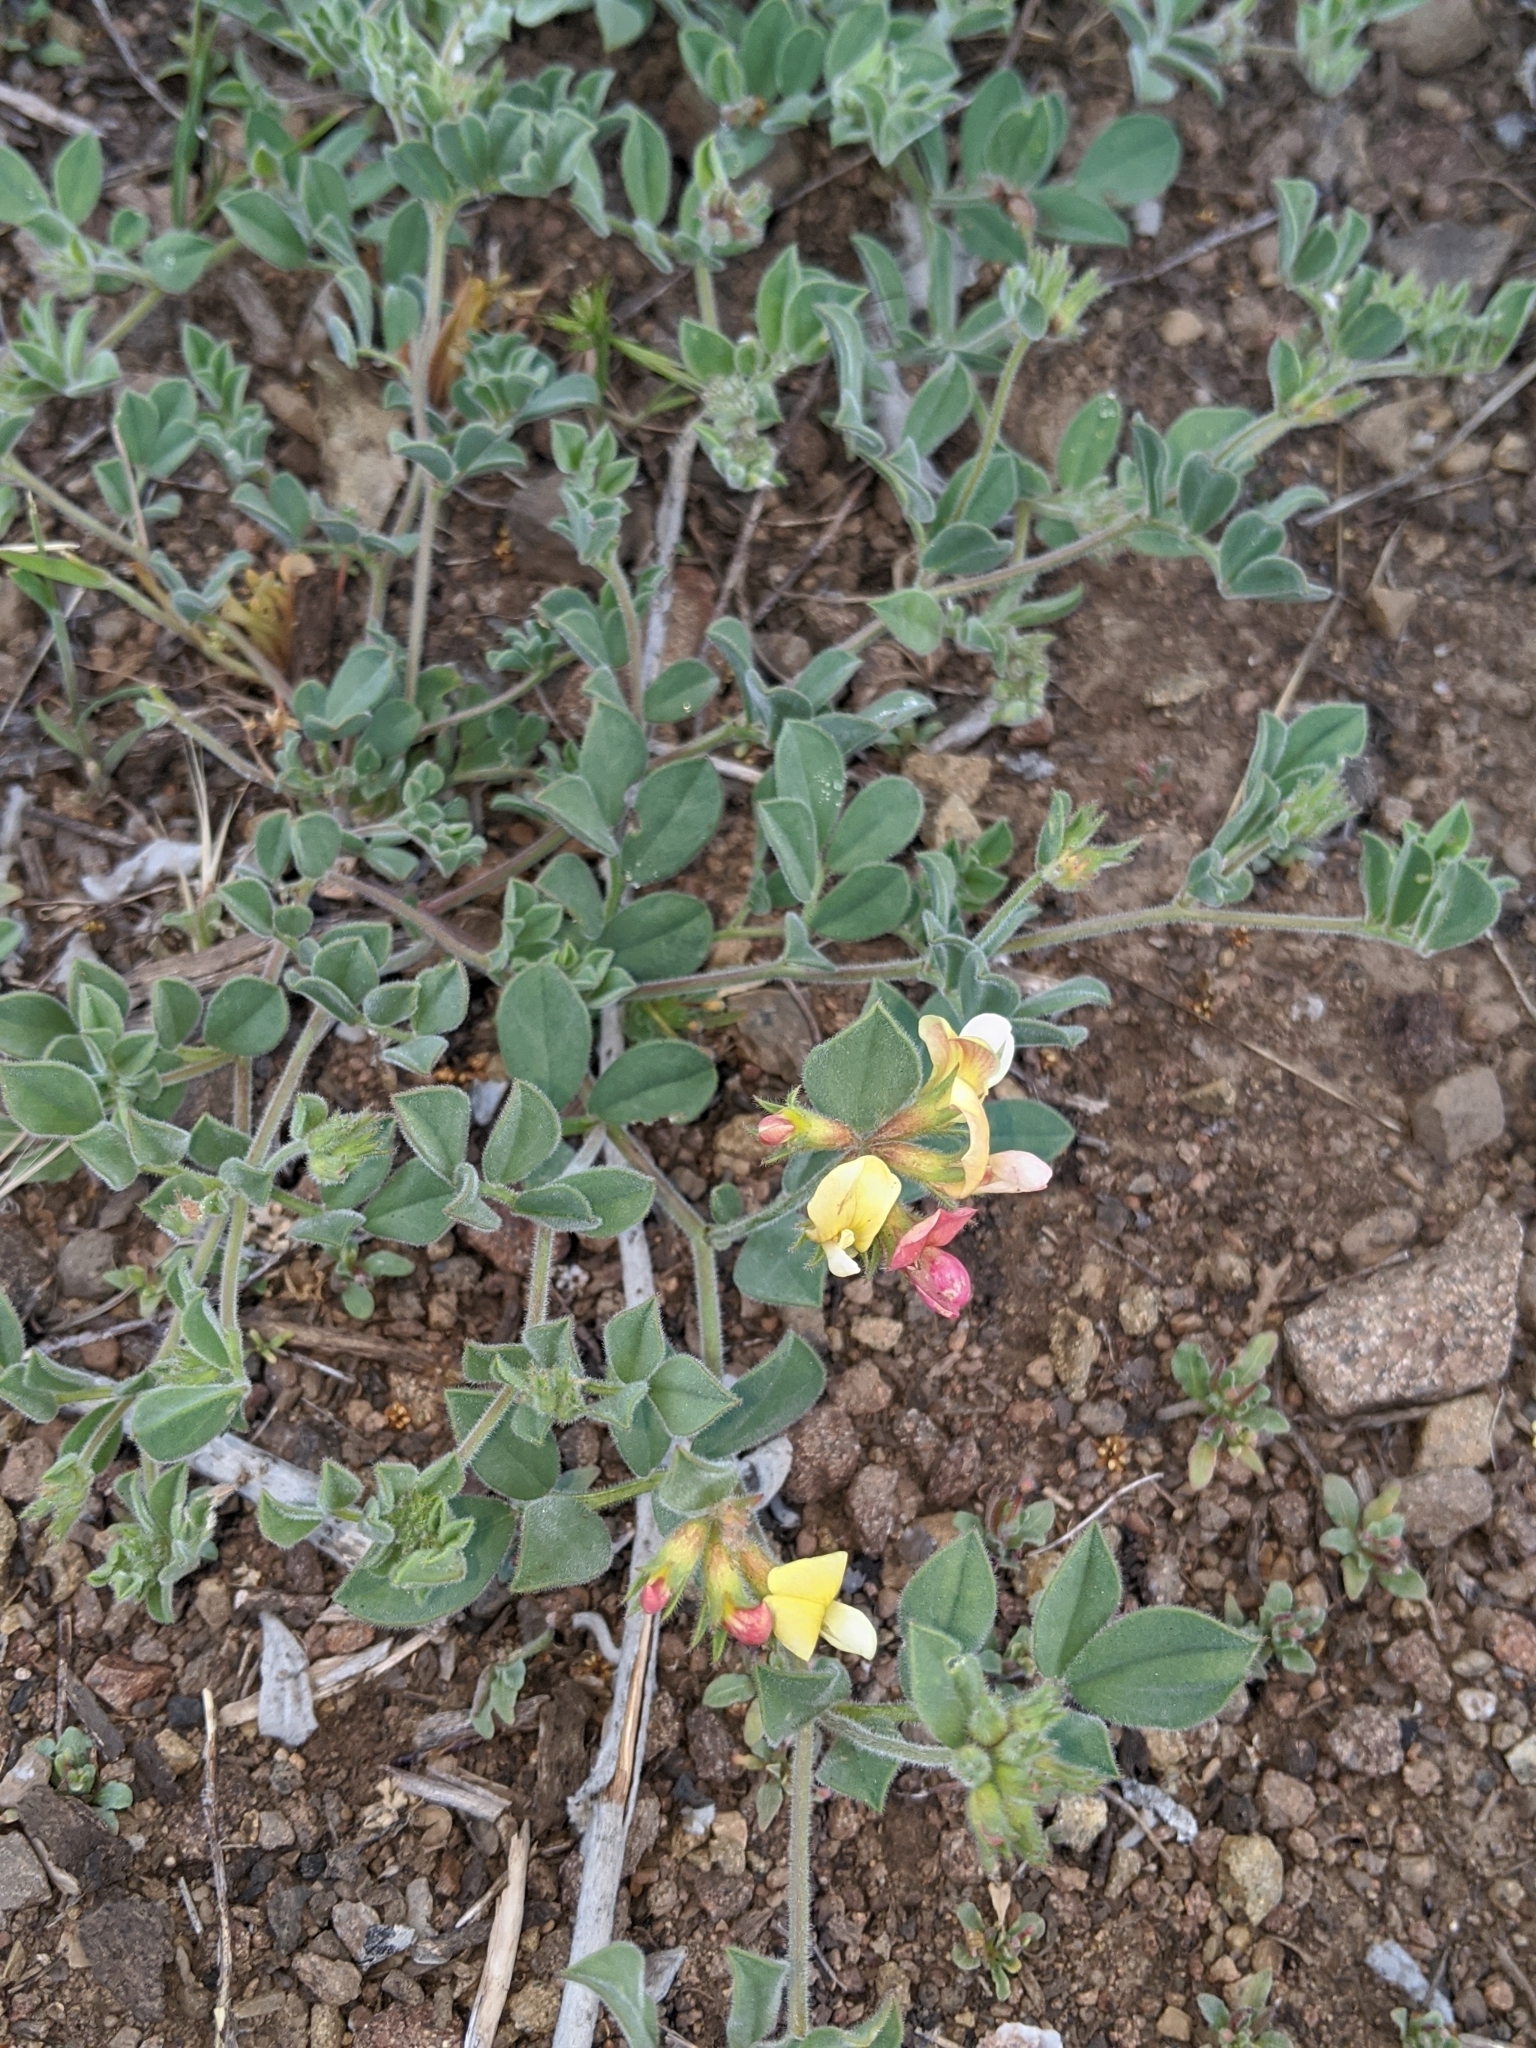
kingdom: Plantae
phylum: Tracheophyta
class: Magnoliopsida
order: Fabales
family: Fabaceae
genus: Acmispon
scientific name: Acmispon grandiflorus
